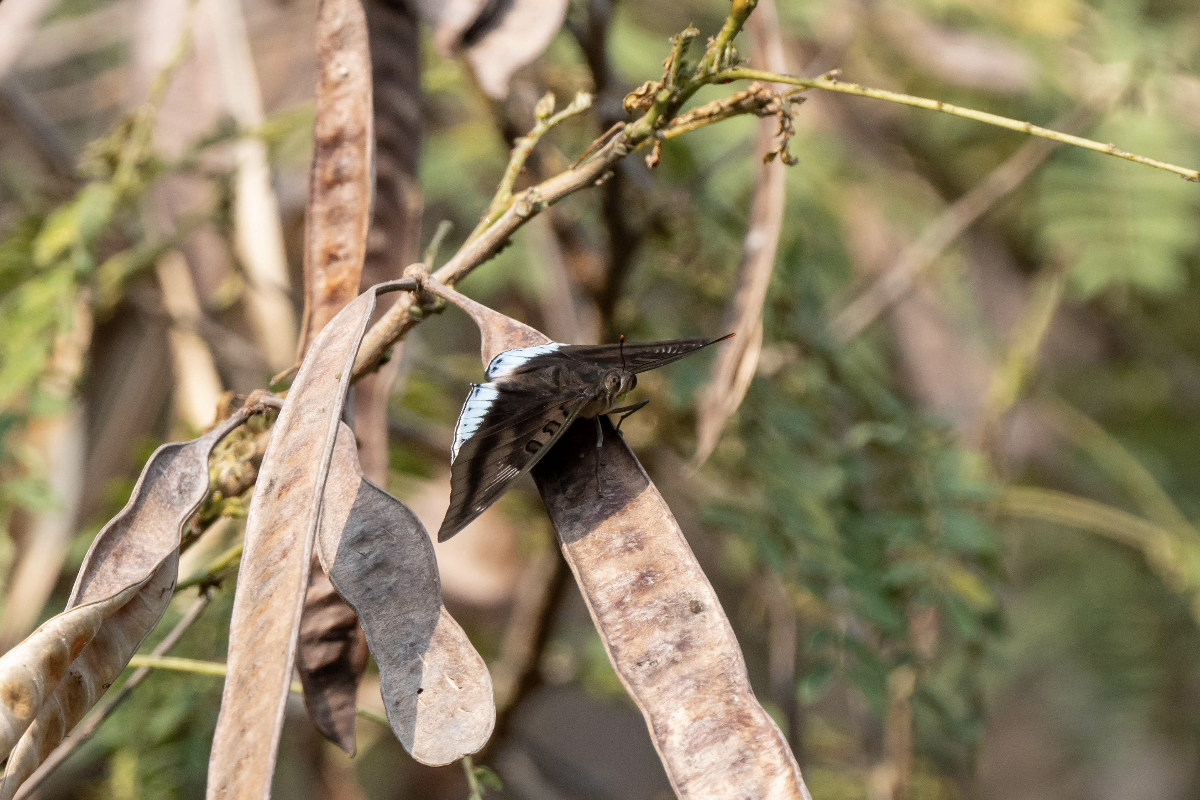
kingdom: Animalia
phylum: Arthropoda
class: Insecta
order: Lepidoptera
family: Nymphalidae
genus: Euthalia
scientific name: Euthalia phemius
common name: White-edged blue baron
